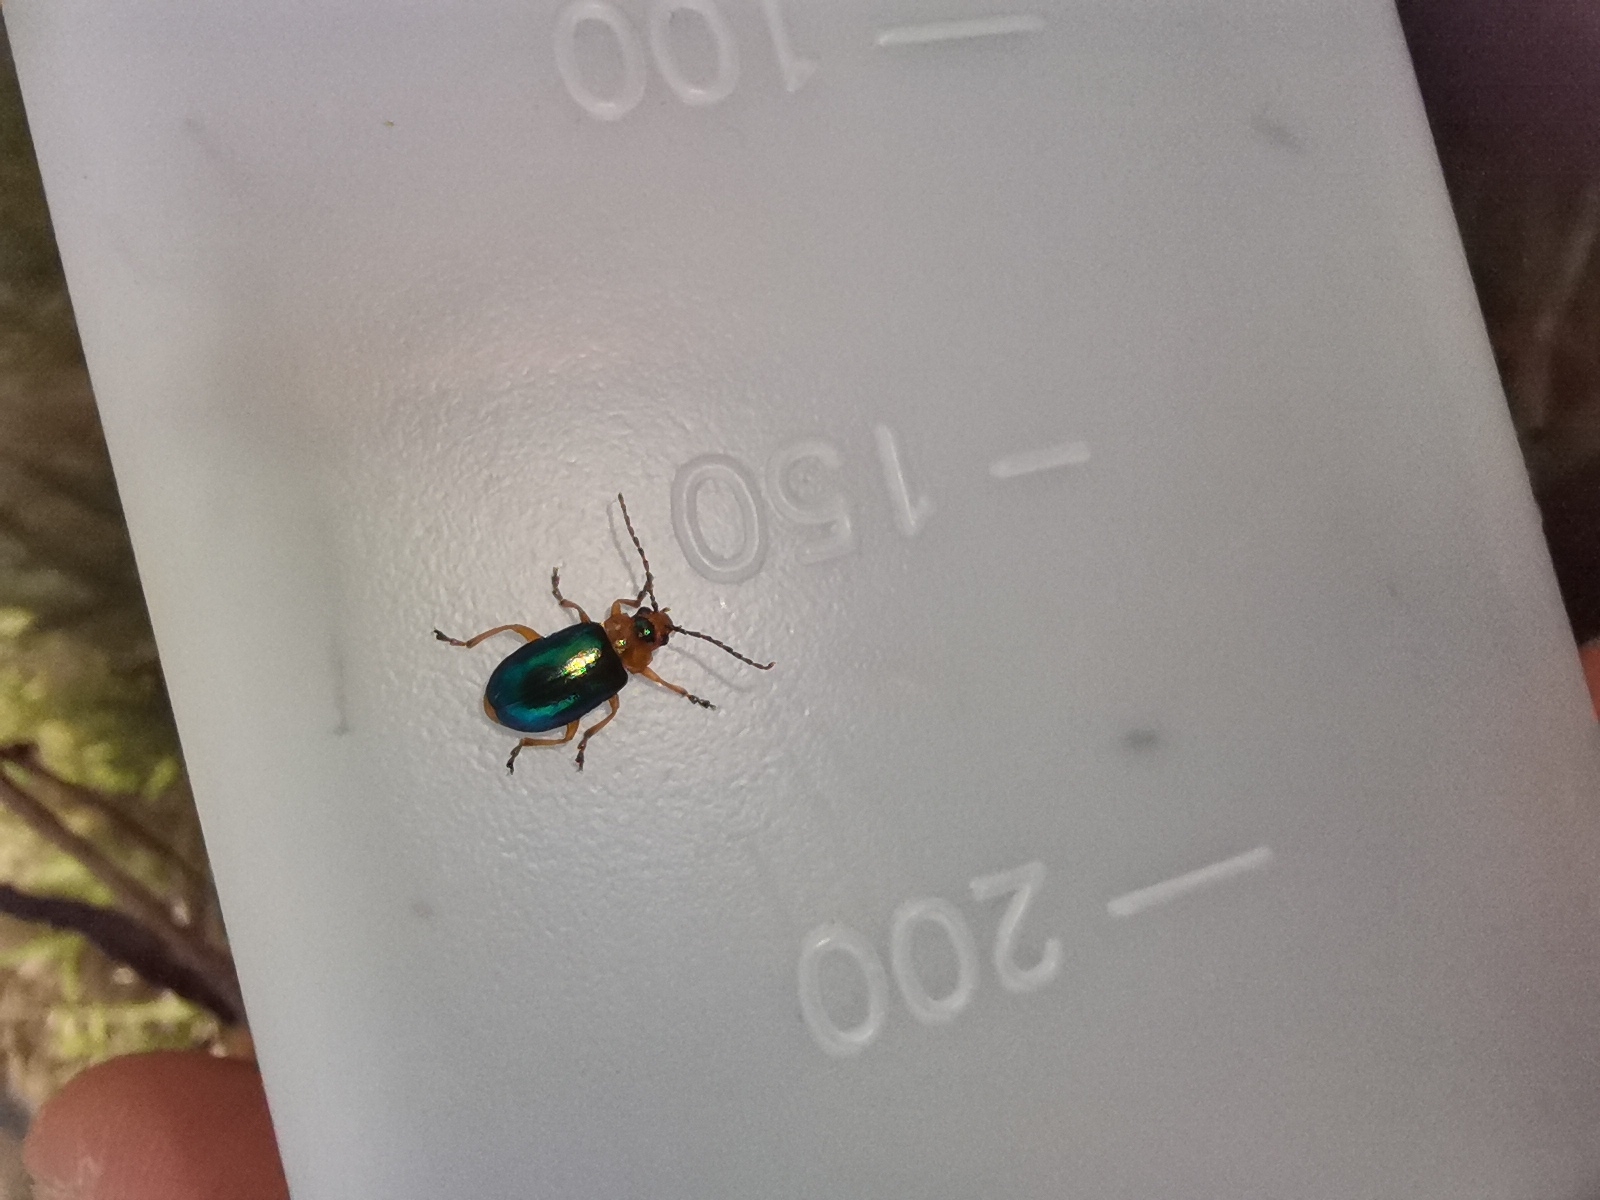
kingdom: Animalia
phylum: Arthropoda
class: Insecta
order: Coleoptera
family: Chrysomelidae
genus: Sermylassa
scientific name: Sermylassa halensis
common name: Leaf beetle
